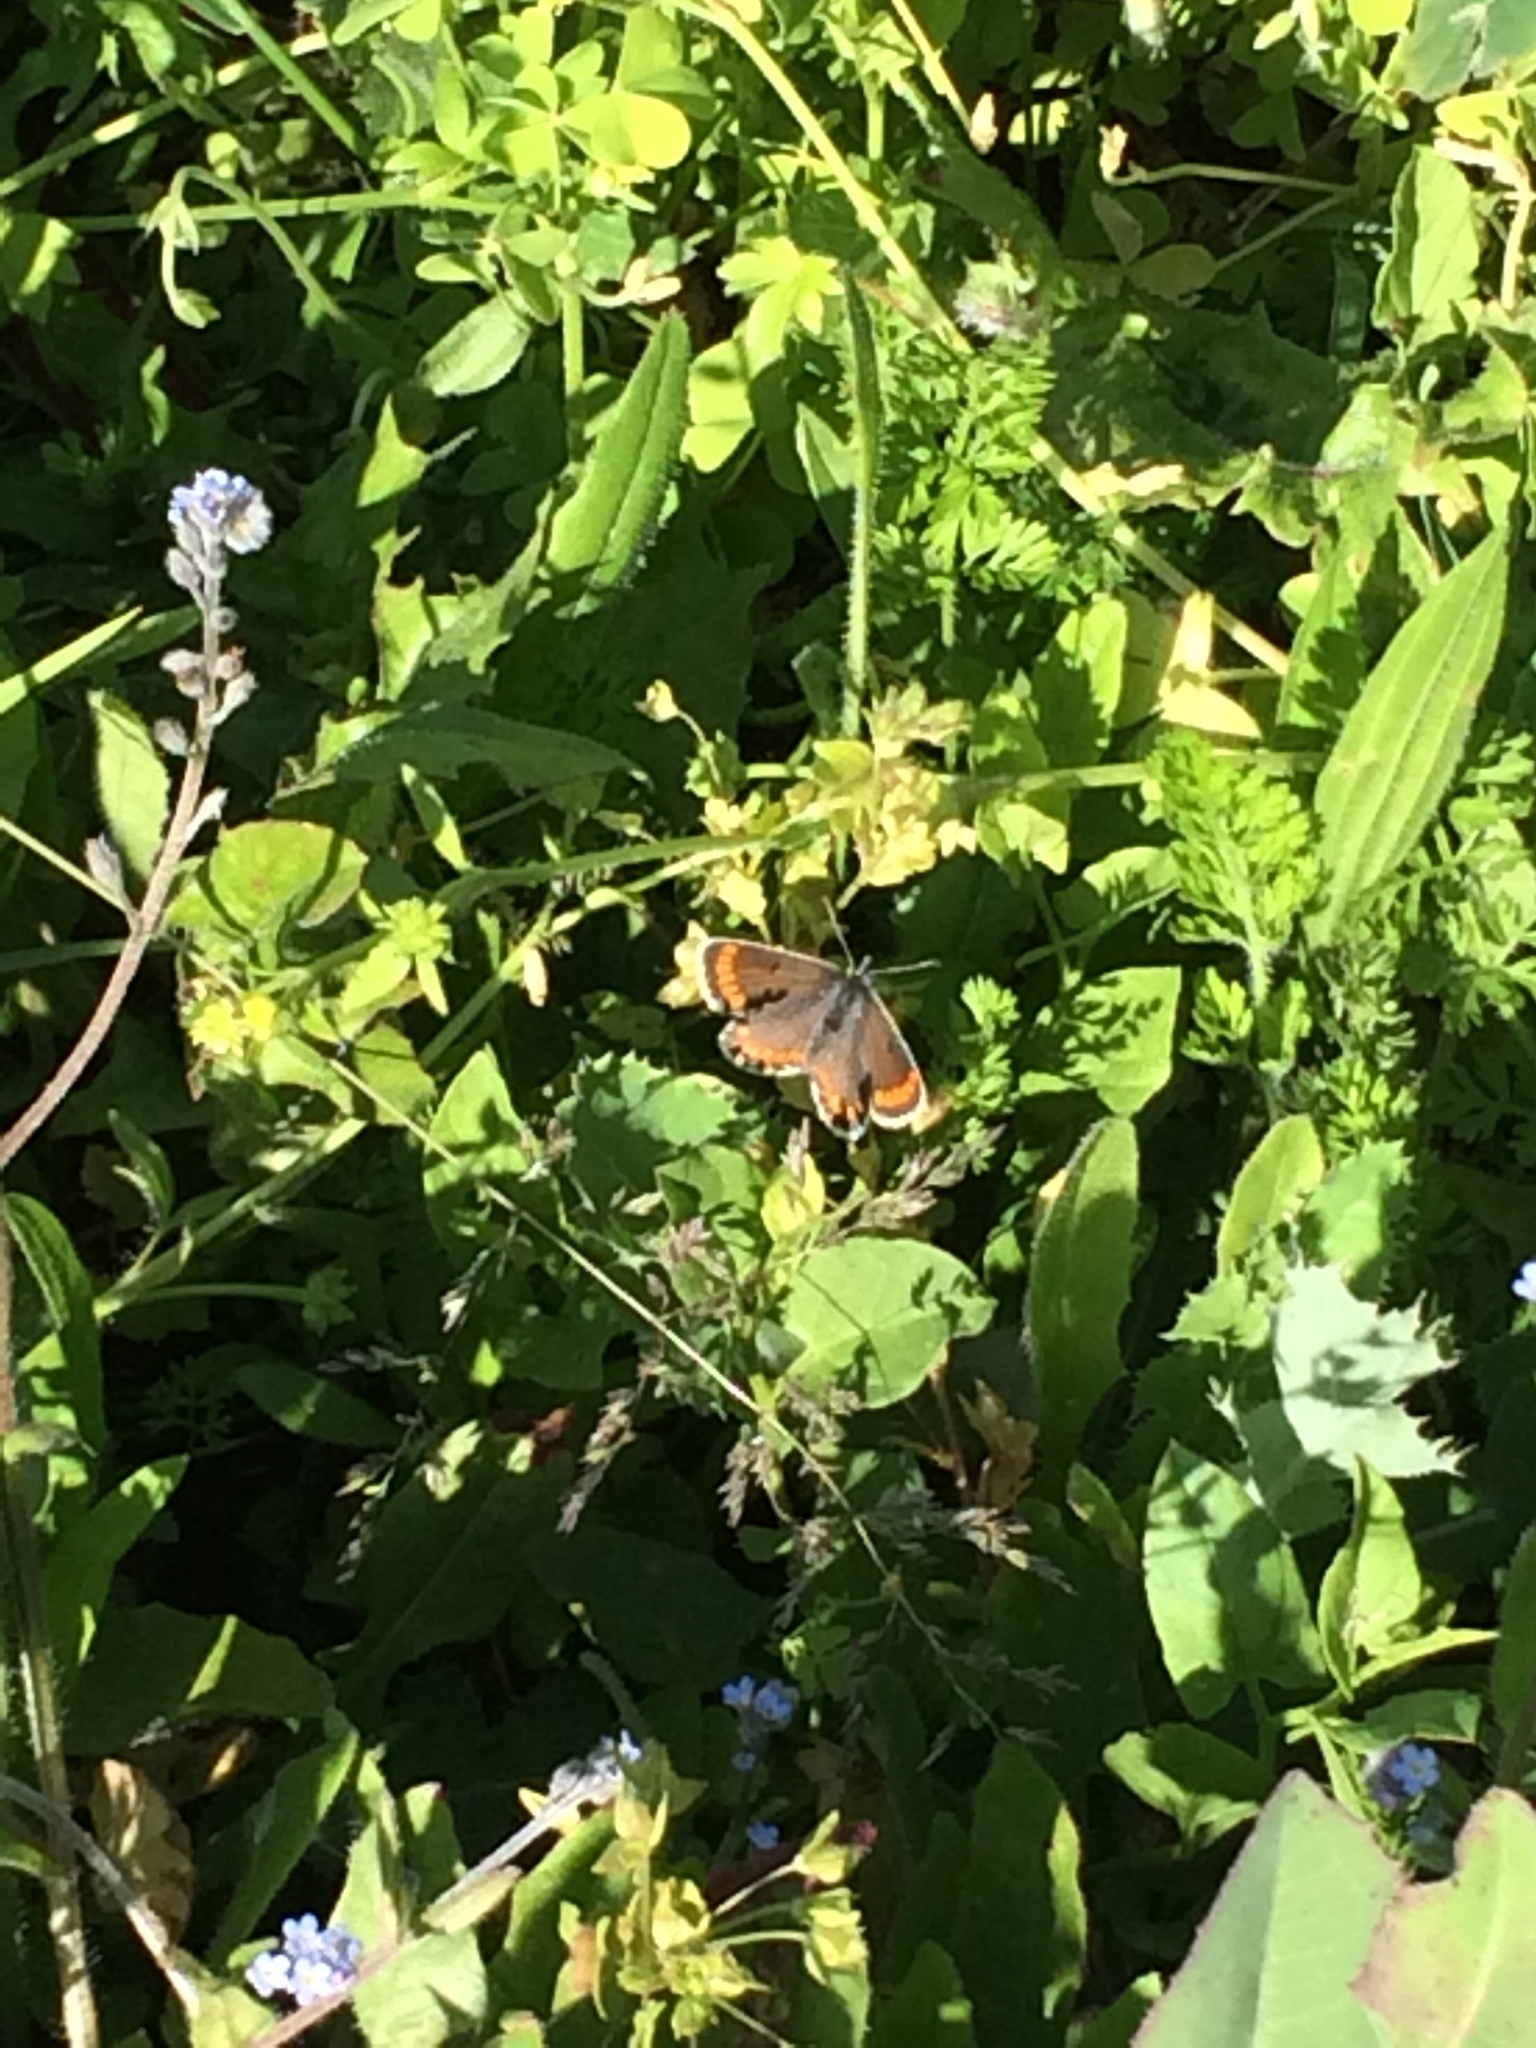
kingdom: Animalia
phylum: Arthropoda
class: Insecta
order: Lepidoptera
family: Lycaenidae
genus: Aricia
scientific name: Aricia agestis
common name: Brown argus
